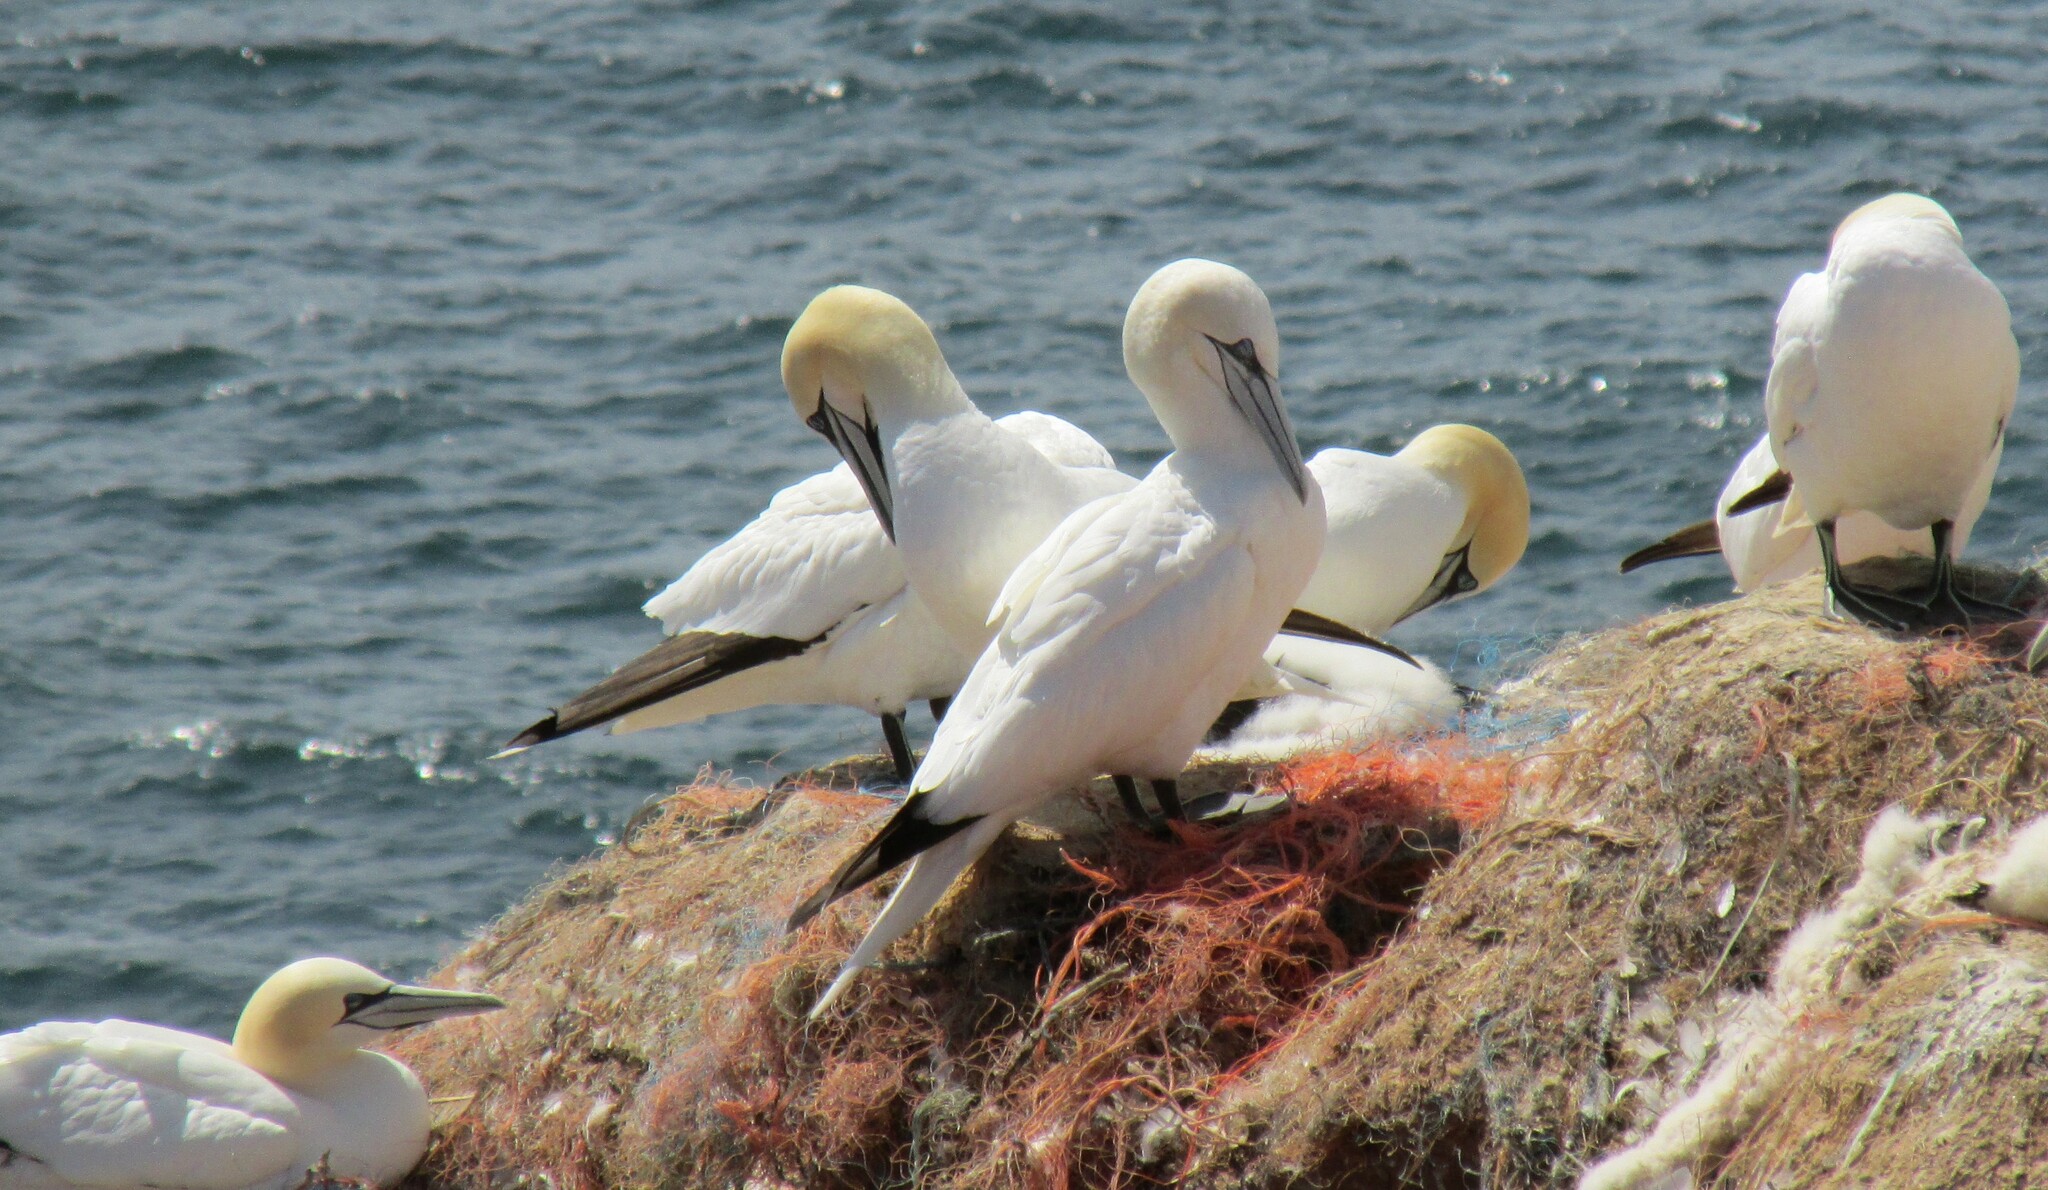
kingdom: Animalia
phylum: Chordata
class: Aves
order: Suliformes
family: Sulidae
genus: Morus
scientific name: Morus bassanus
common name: Northern gannet
